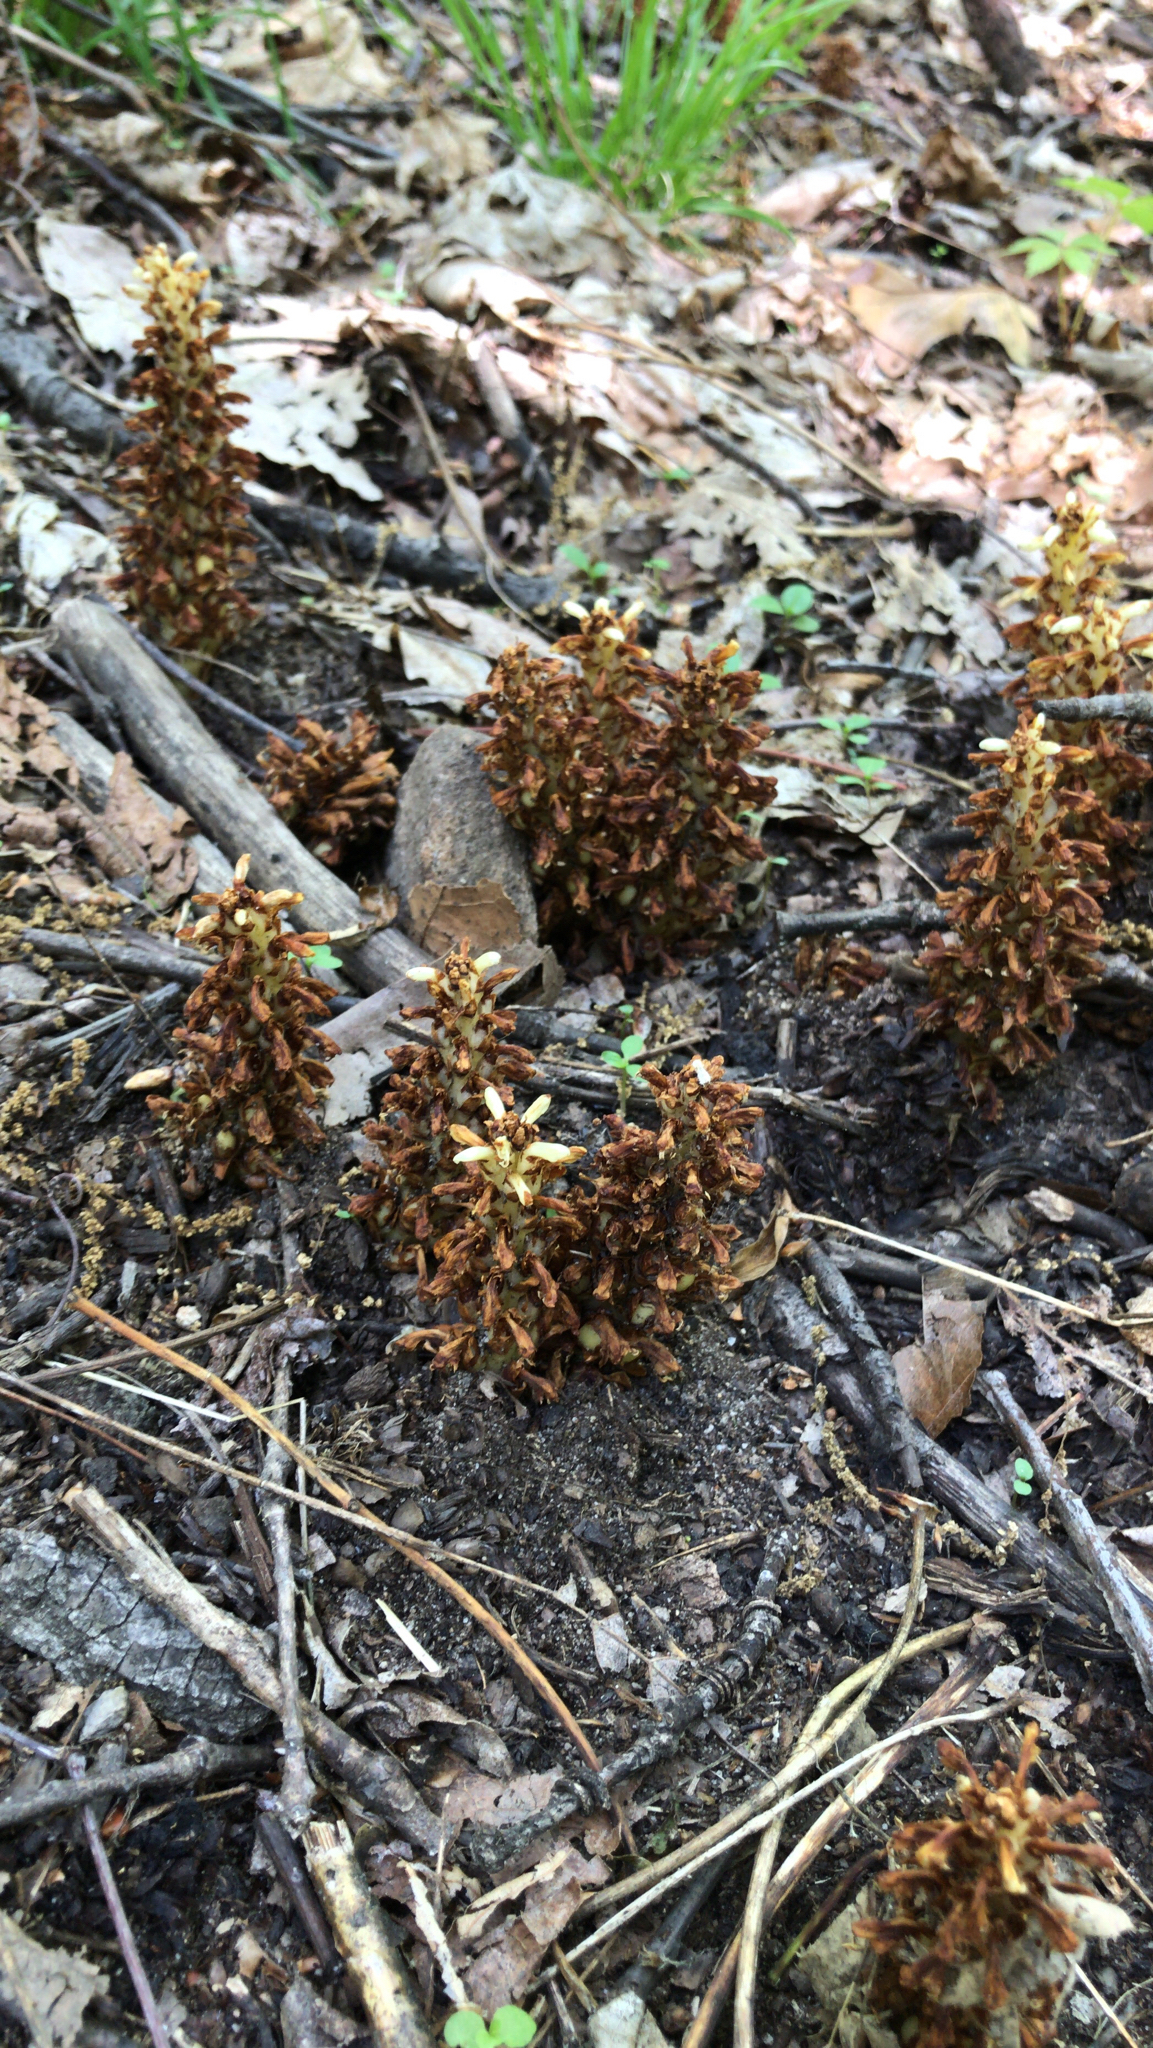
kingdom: Plantae
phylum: Tracheophyta
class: Magnoliopsida
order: Lamiales
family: Orobanchaceae
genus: Conopholis
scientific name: Conopholis americana
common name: American cancer-root
